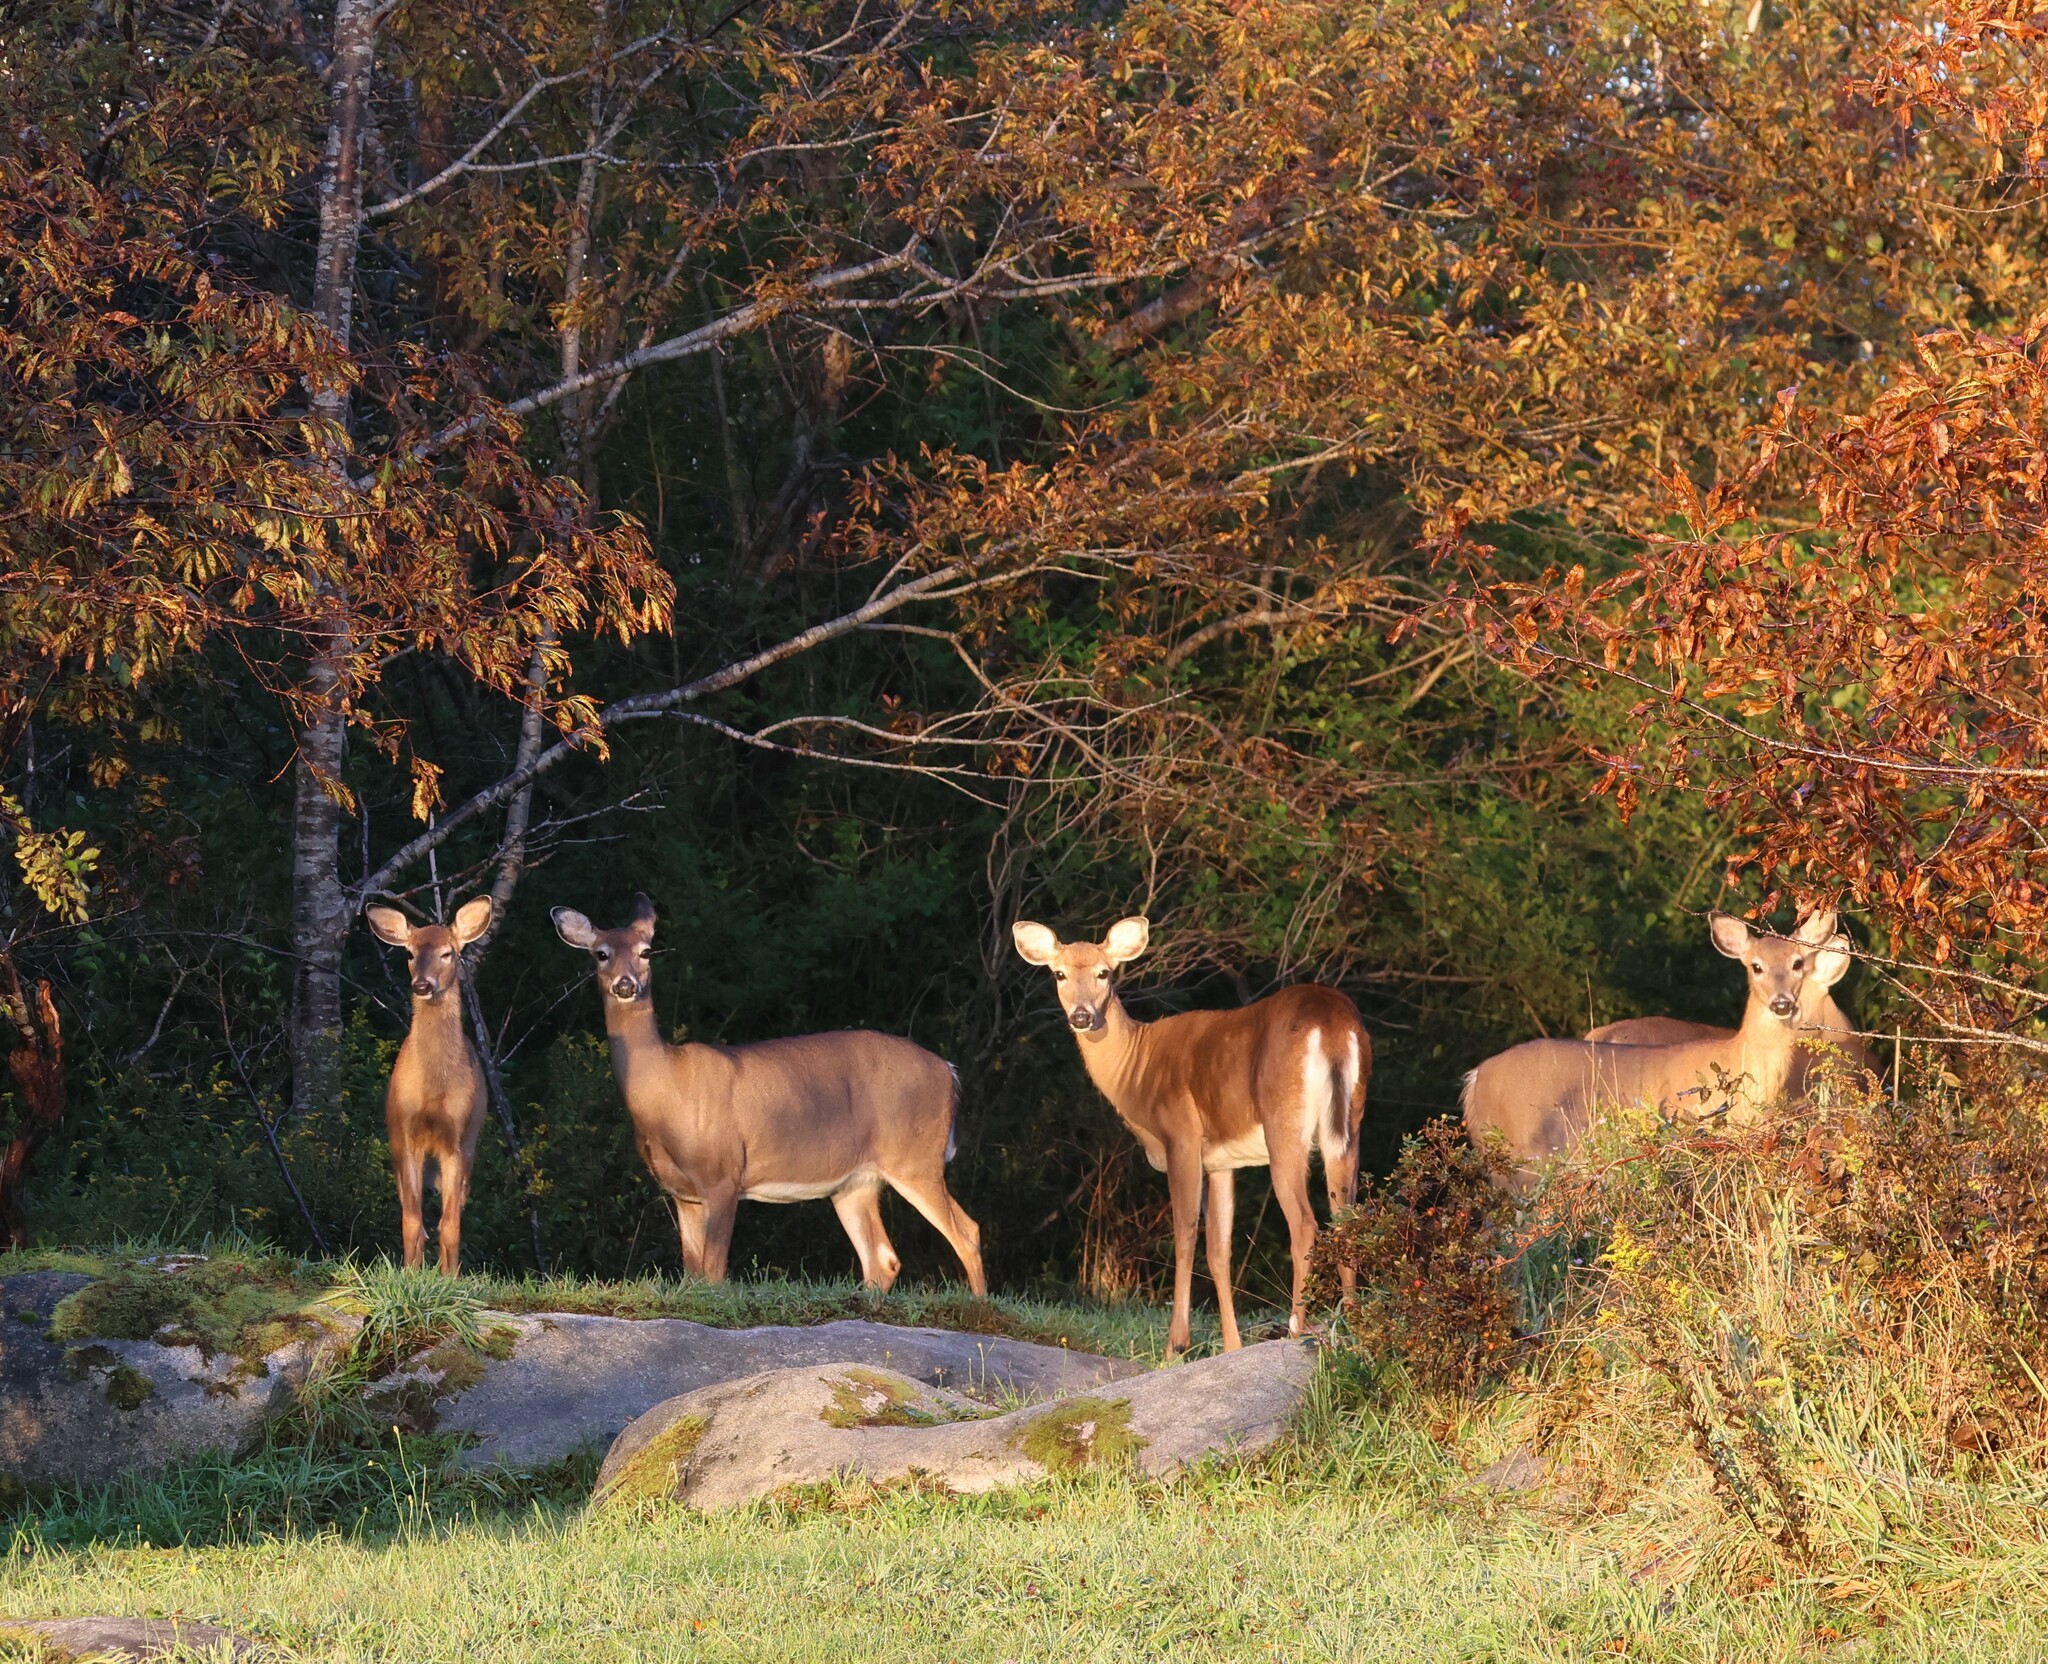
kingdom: Animalia
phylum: Chordata
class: Mammalia
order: Artiodactyla
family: Cervidae
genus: Odocoileus
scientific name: Odocoileus virginianus
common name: White-tailed deer
